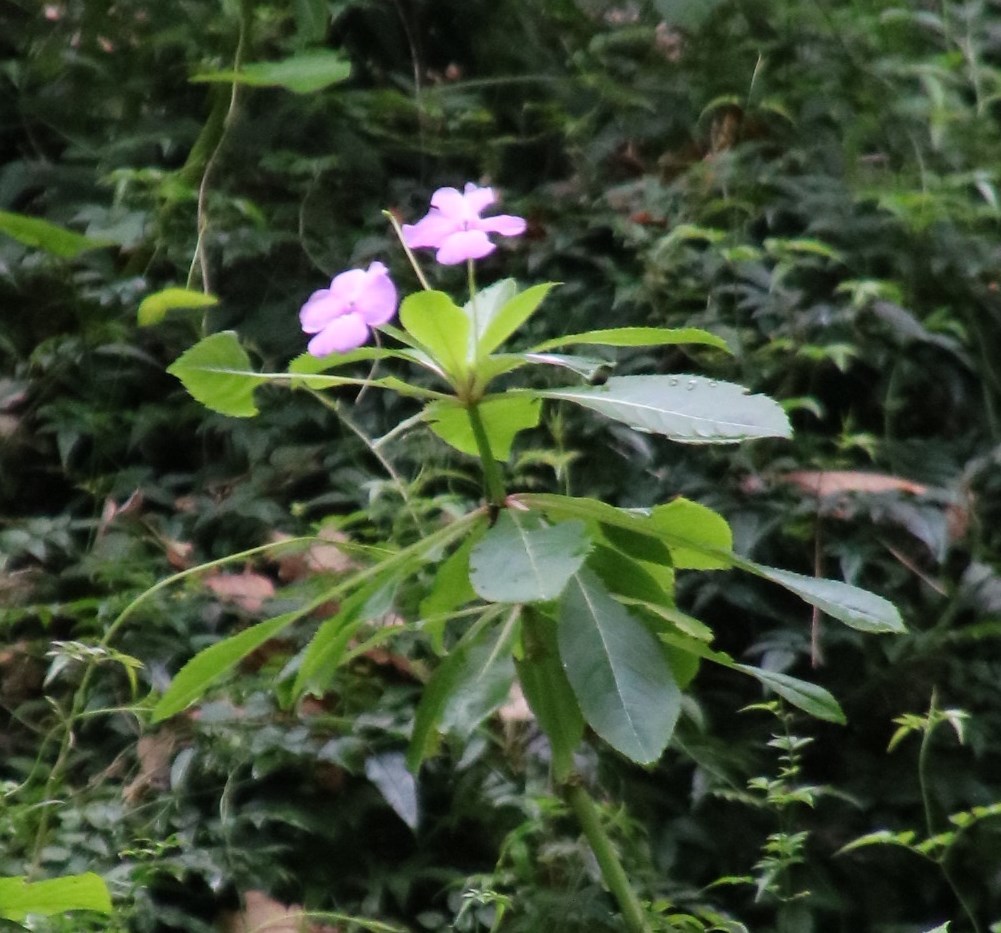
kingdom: Plantae
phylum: Tracheophyta
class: Magnoliopsida
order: Ericales
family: Balsaminaceae
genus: Impatiens
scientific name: Impatiens sodenii
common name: Oliver's touch-me-not
